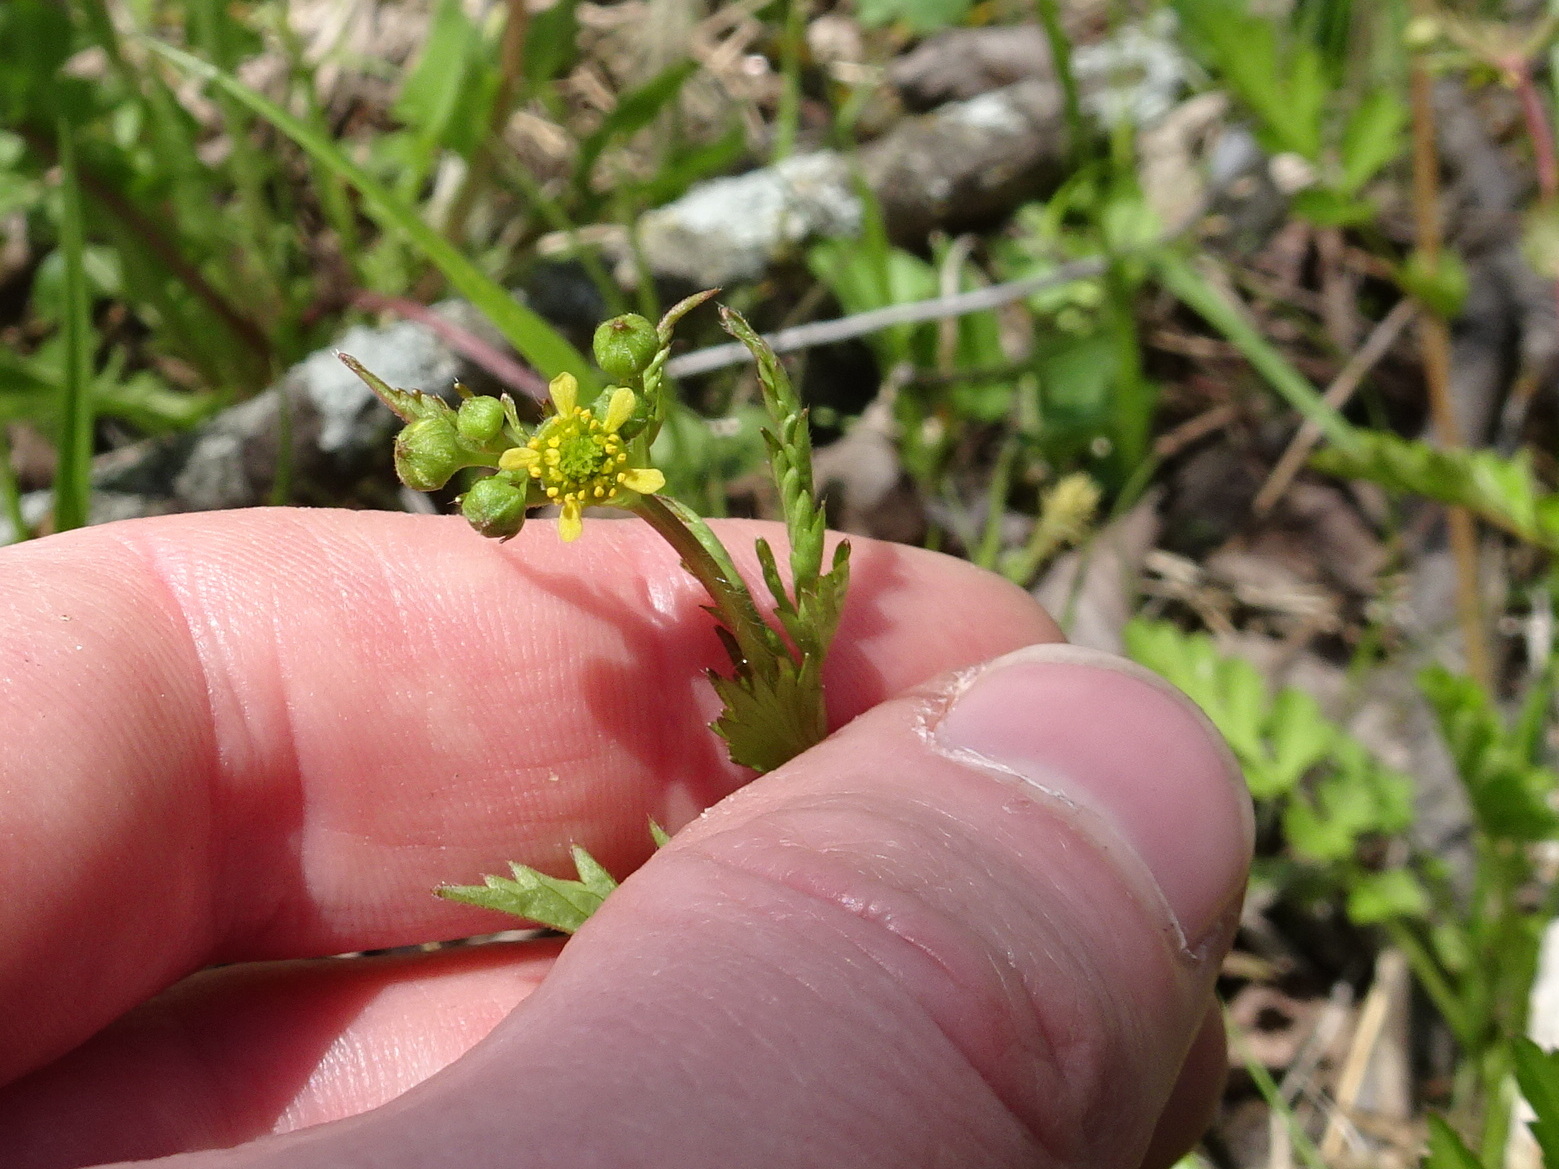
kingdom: Plantae
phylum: Tracheophyta
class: Magnoliopsida
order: Rosales
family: Rosaceae
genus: Geum
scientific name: Geum vernum
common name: Spring avens
